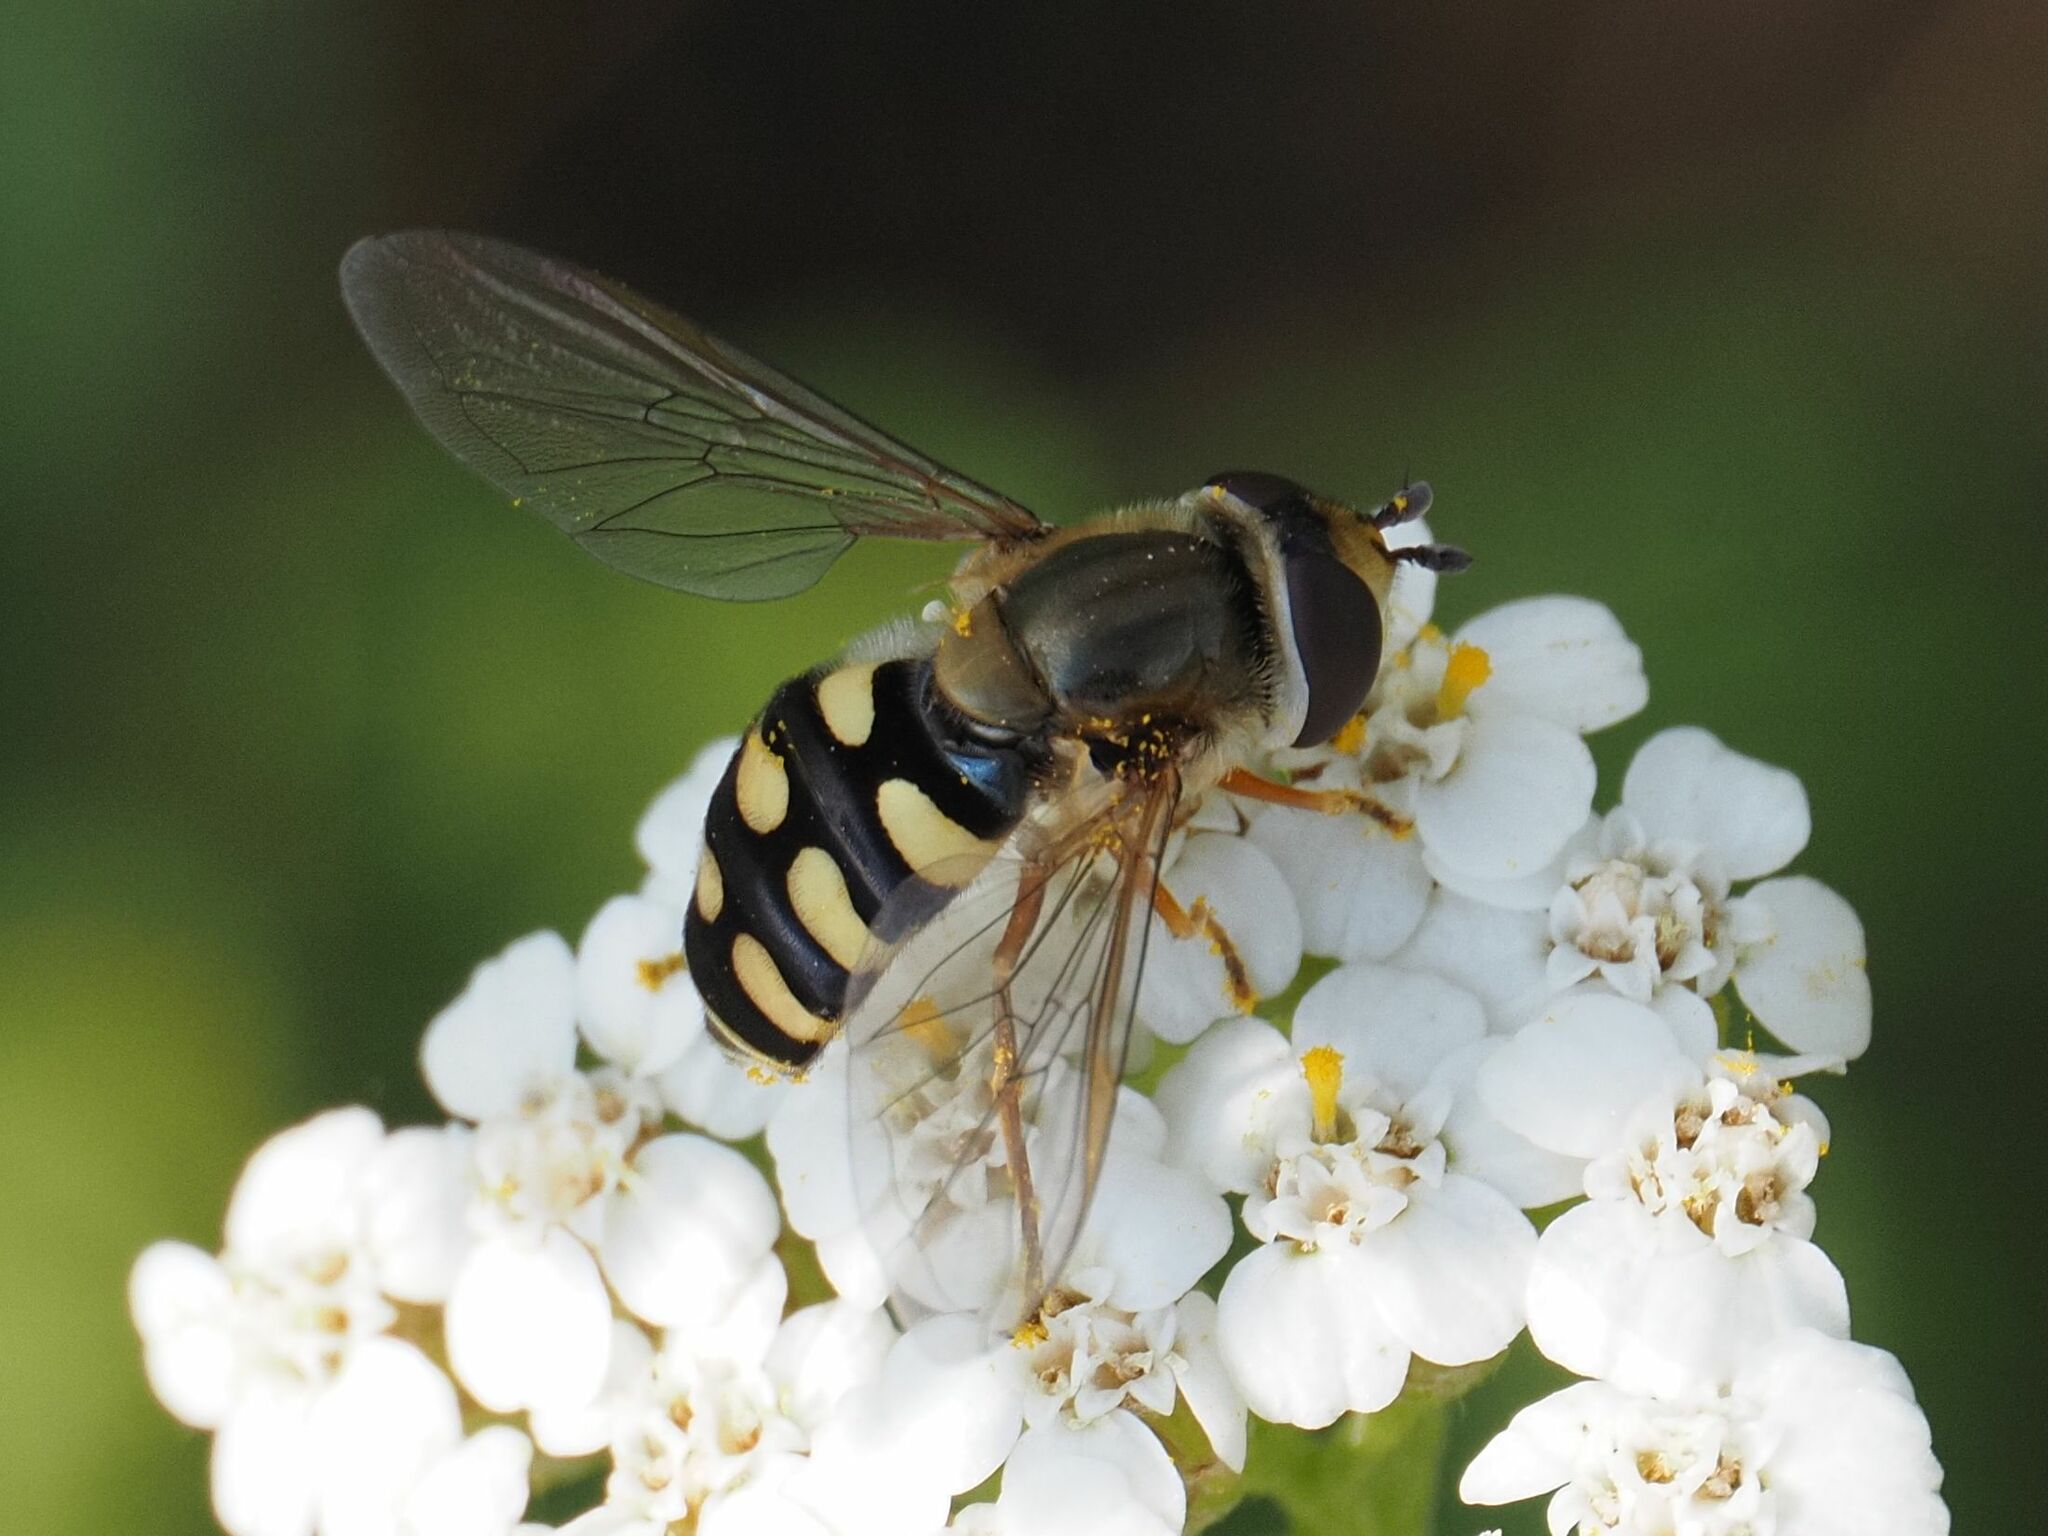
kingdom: Animalia
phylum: Arthropoda
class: Insecta
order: Diptera
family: Syrphidae
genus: Eupeodes
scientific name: Eupeodes corollae
